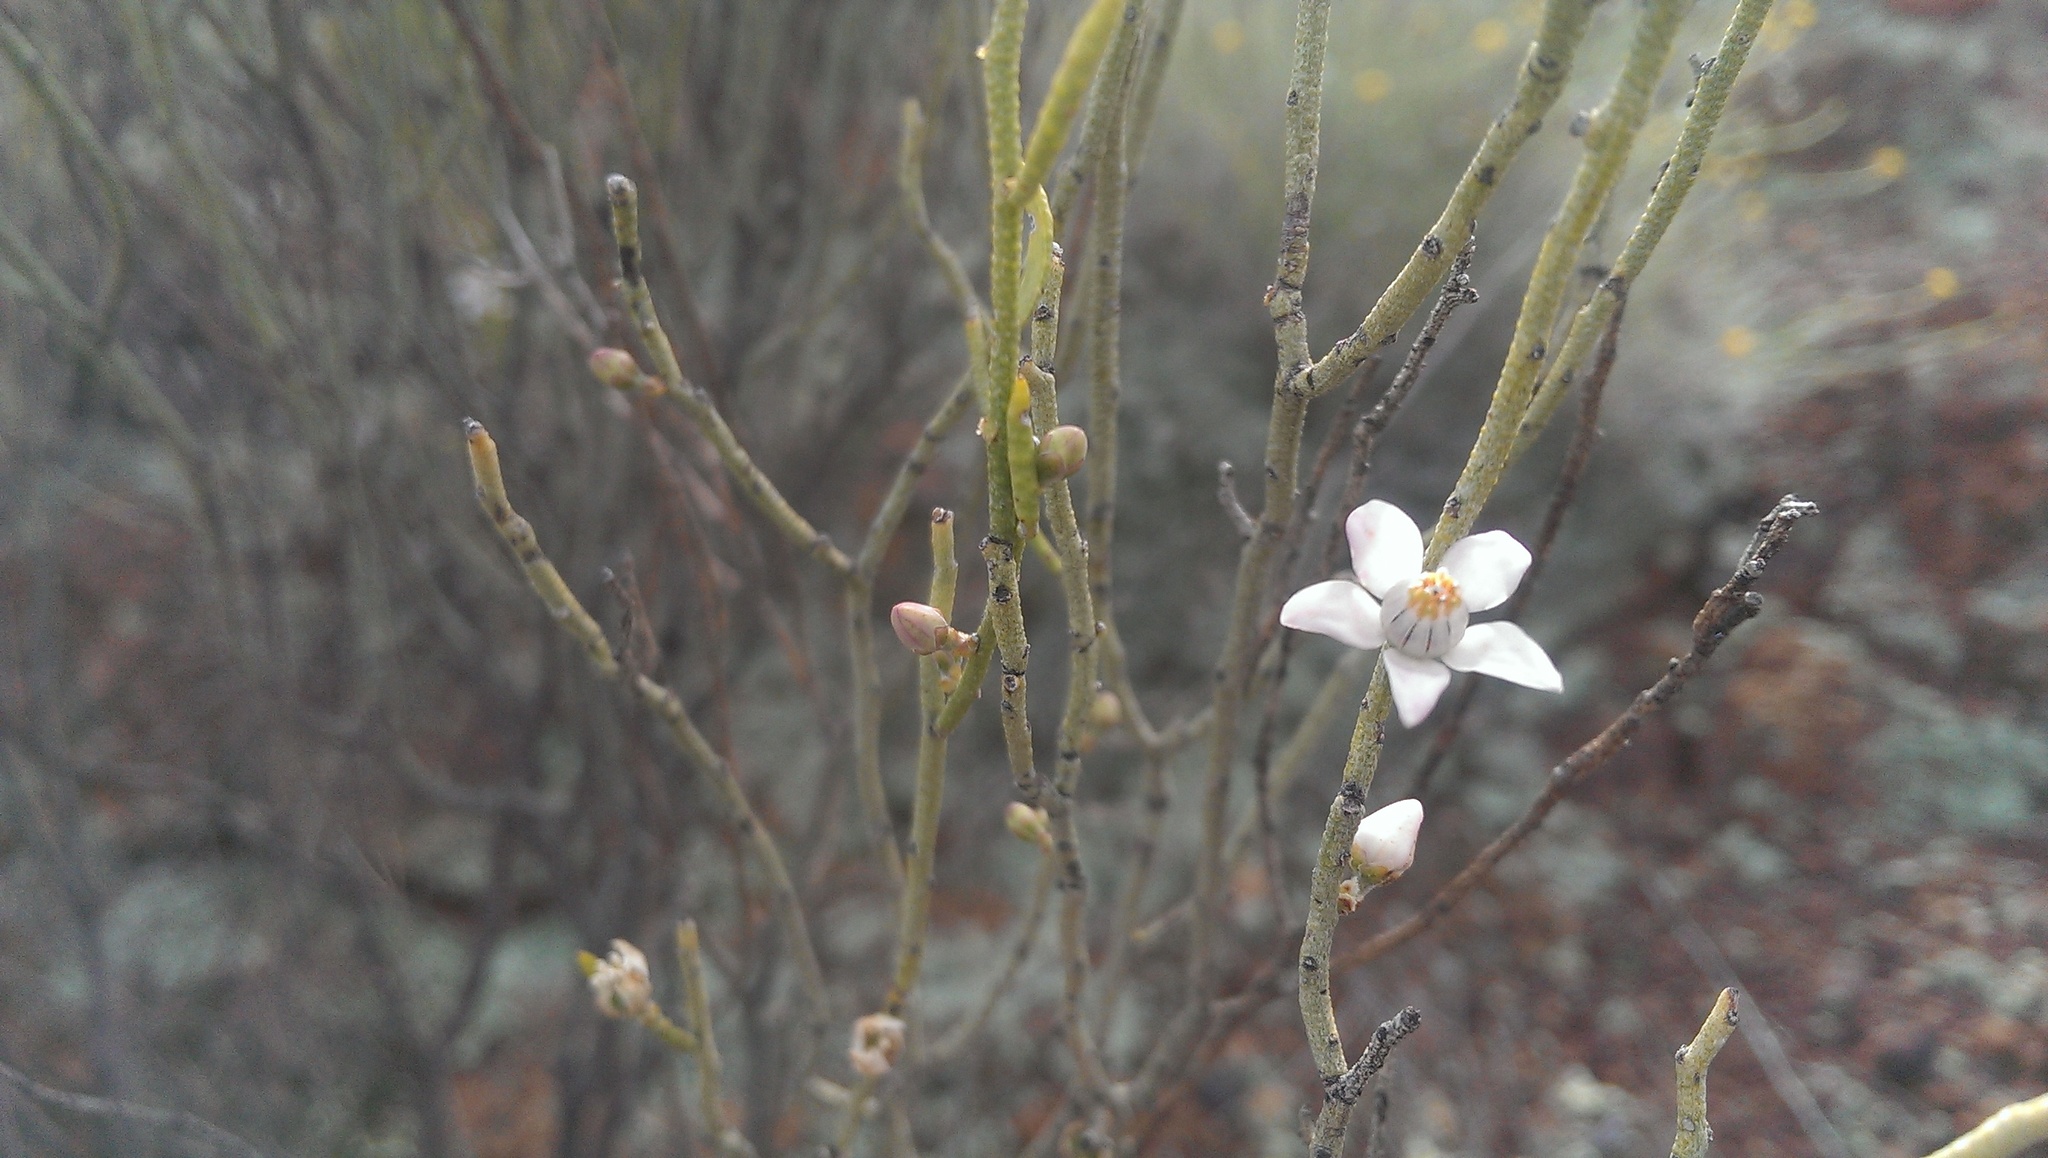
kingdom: Plantae
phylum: Tracheophyta
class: Magnoliopsida
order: Sapindales
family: Rutaceae
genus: Philotheca
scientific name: Philotheca brucei
